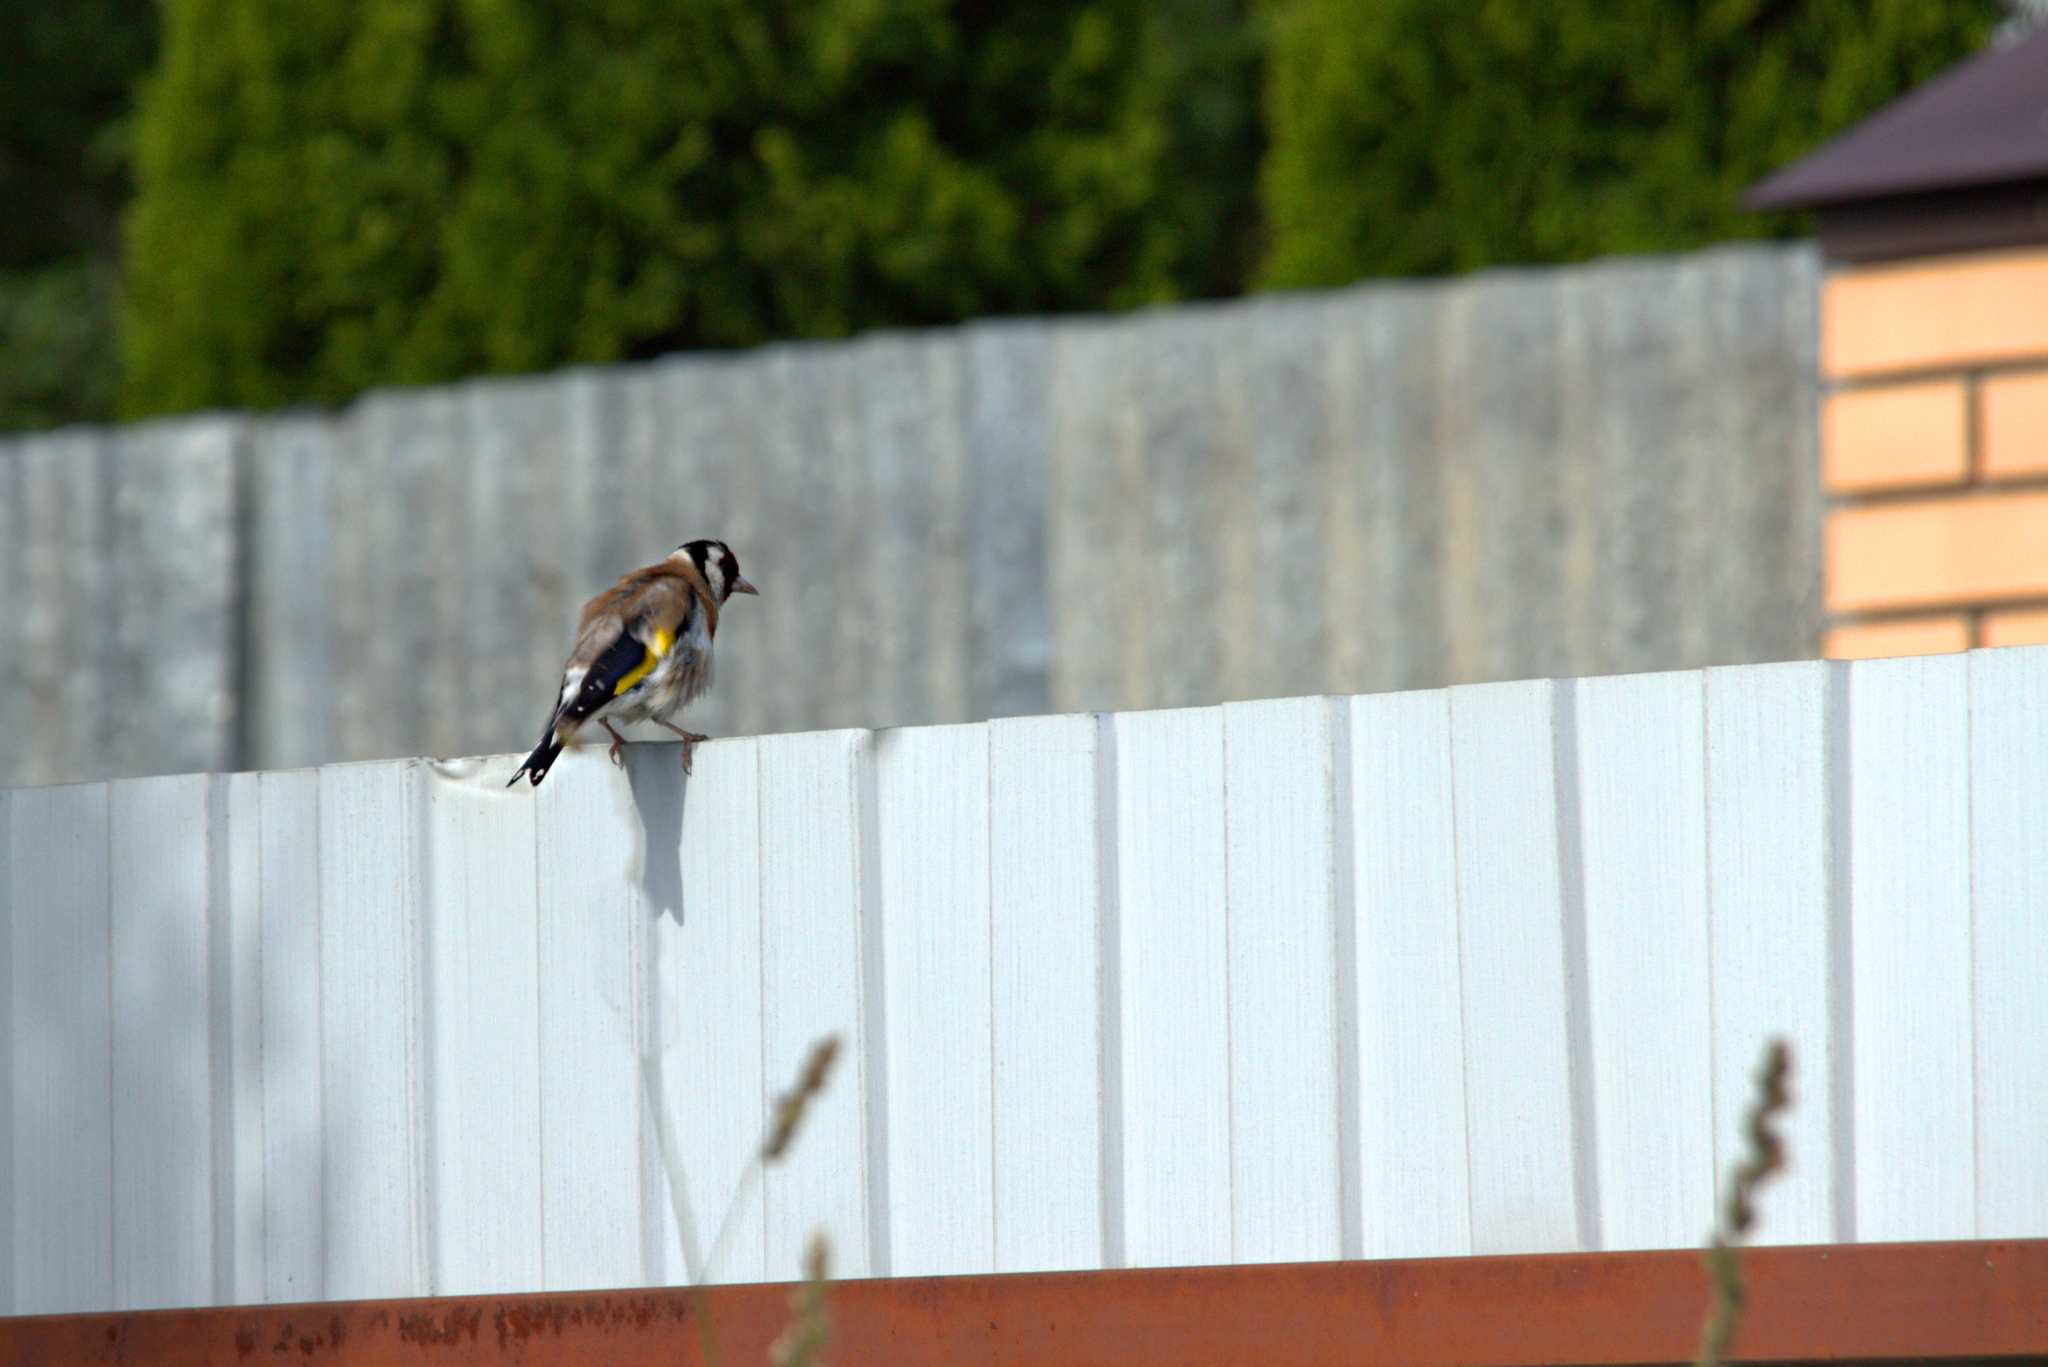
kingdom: Animalia
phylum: Chordata
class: Aves
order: Passeriformes
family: Fringillidae
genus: Carduelis
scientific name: Carduelis carduelis
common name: European goldfinch
